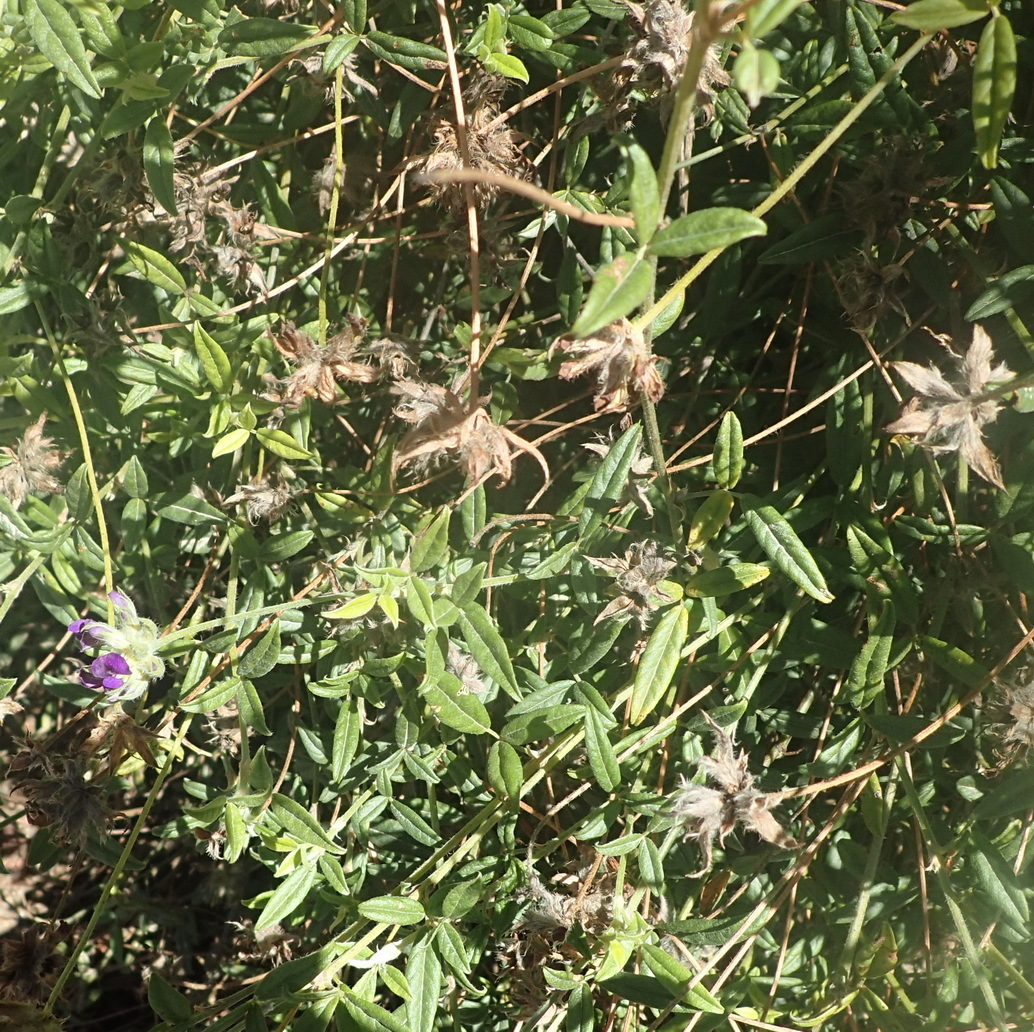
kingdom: Plantae
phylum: Tracheophyta
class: Magnoliopsida
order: Fabales
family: Fabaceae
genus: Psoralea
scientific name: Psoralea swartbergensis
